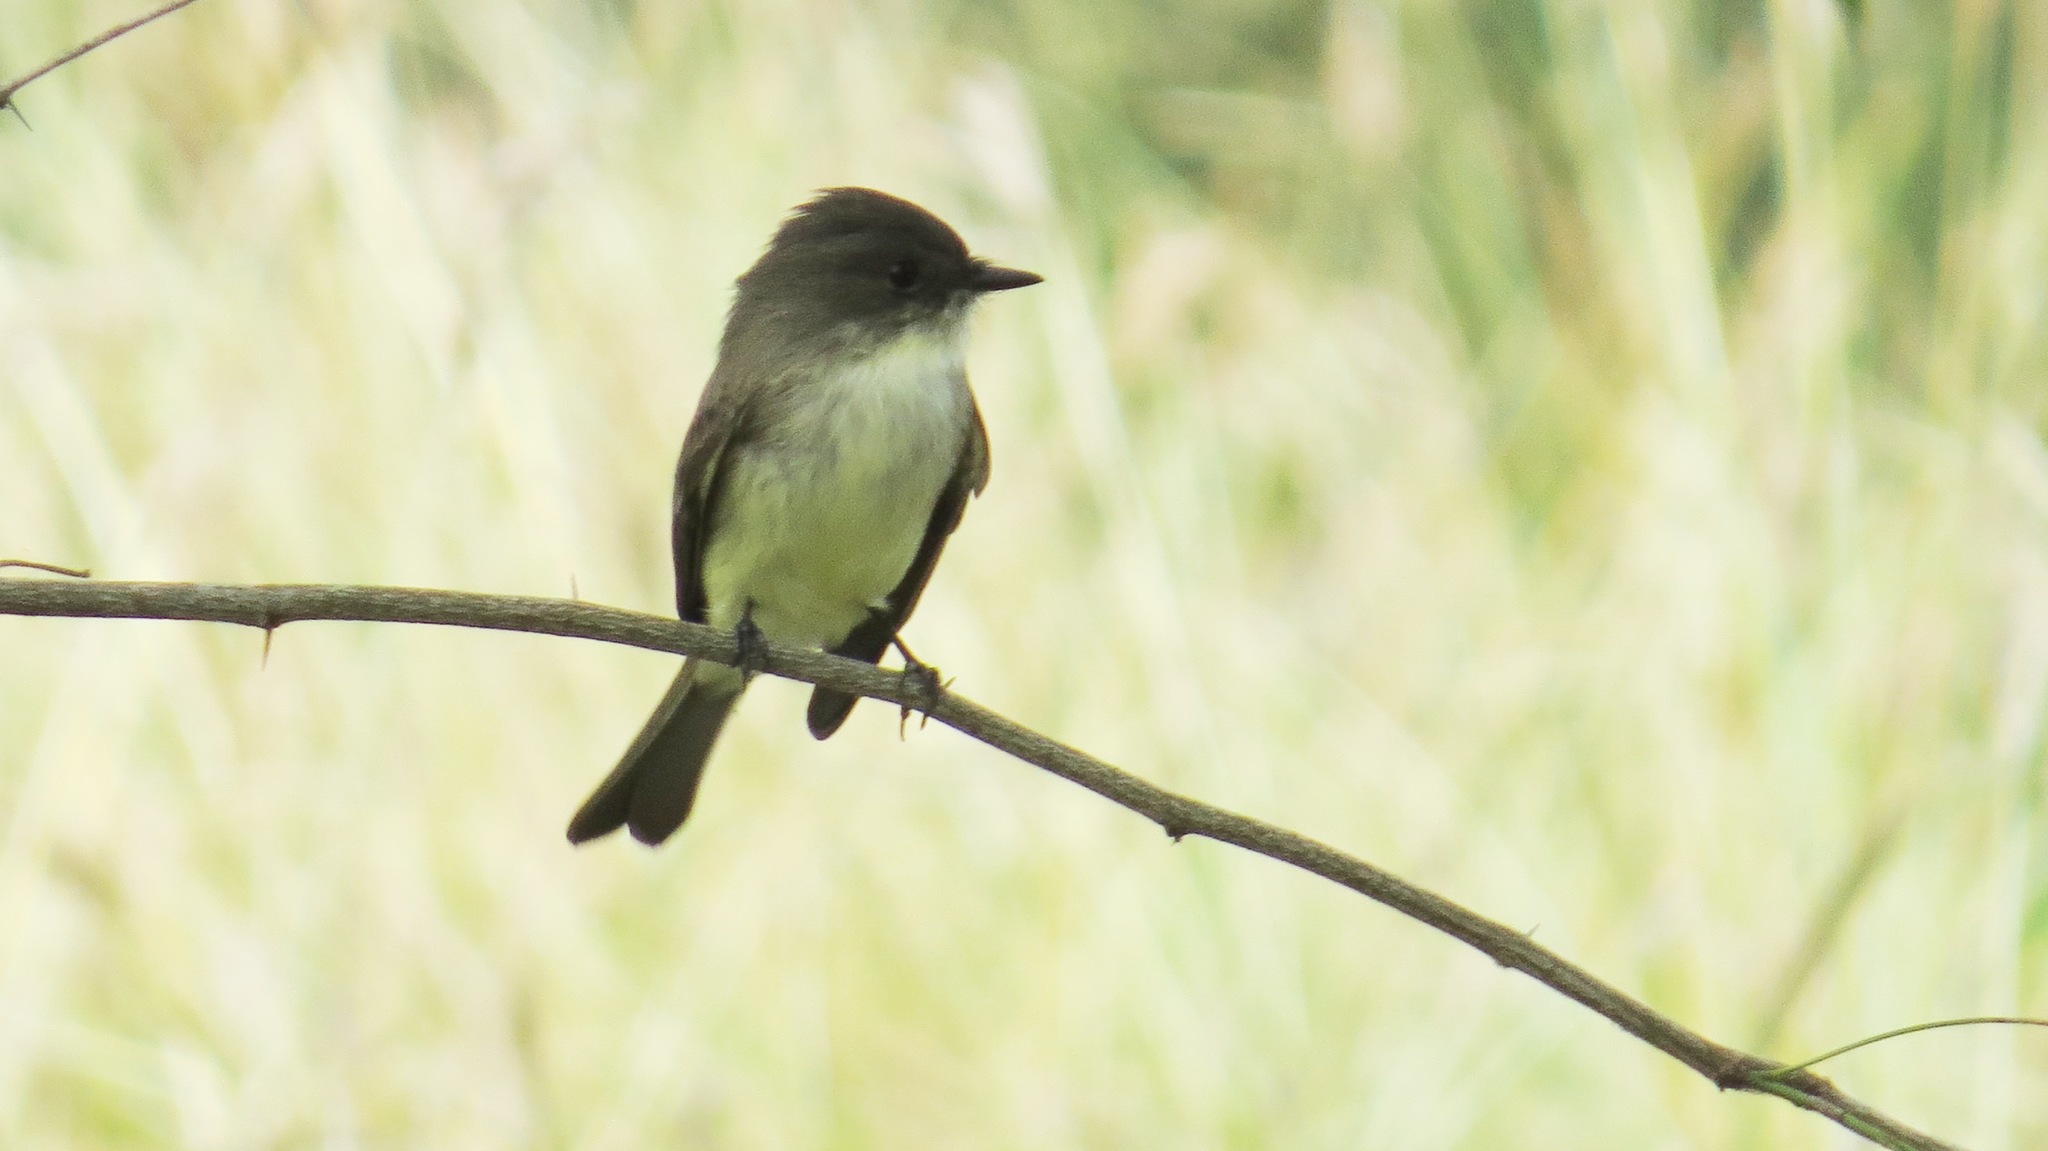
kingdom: Animalia
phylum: Chordata
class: Aves
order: Passeriformes
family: Tyrannidae
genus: Sayornis
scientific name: Sayornis phoebe
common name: Eastern phoebe
